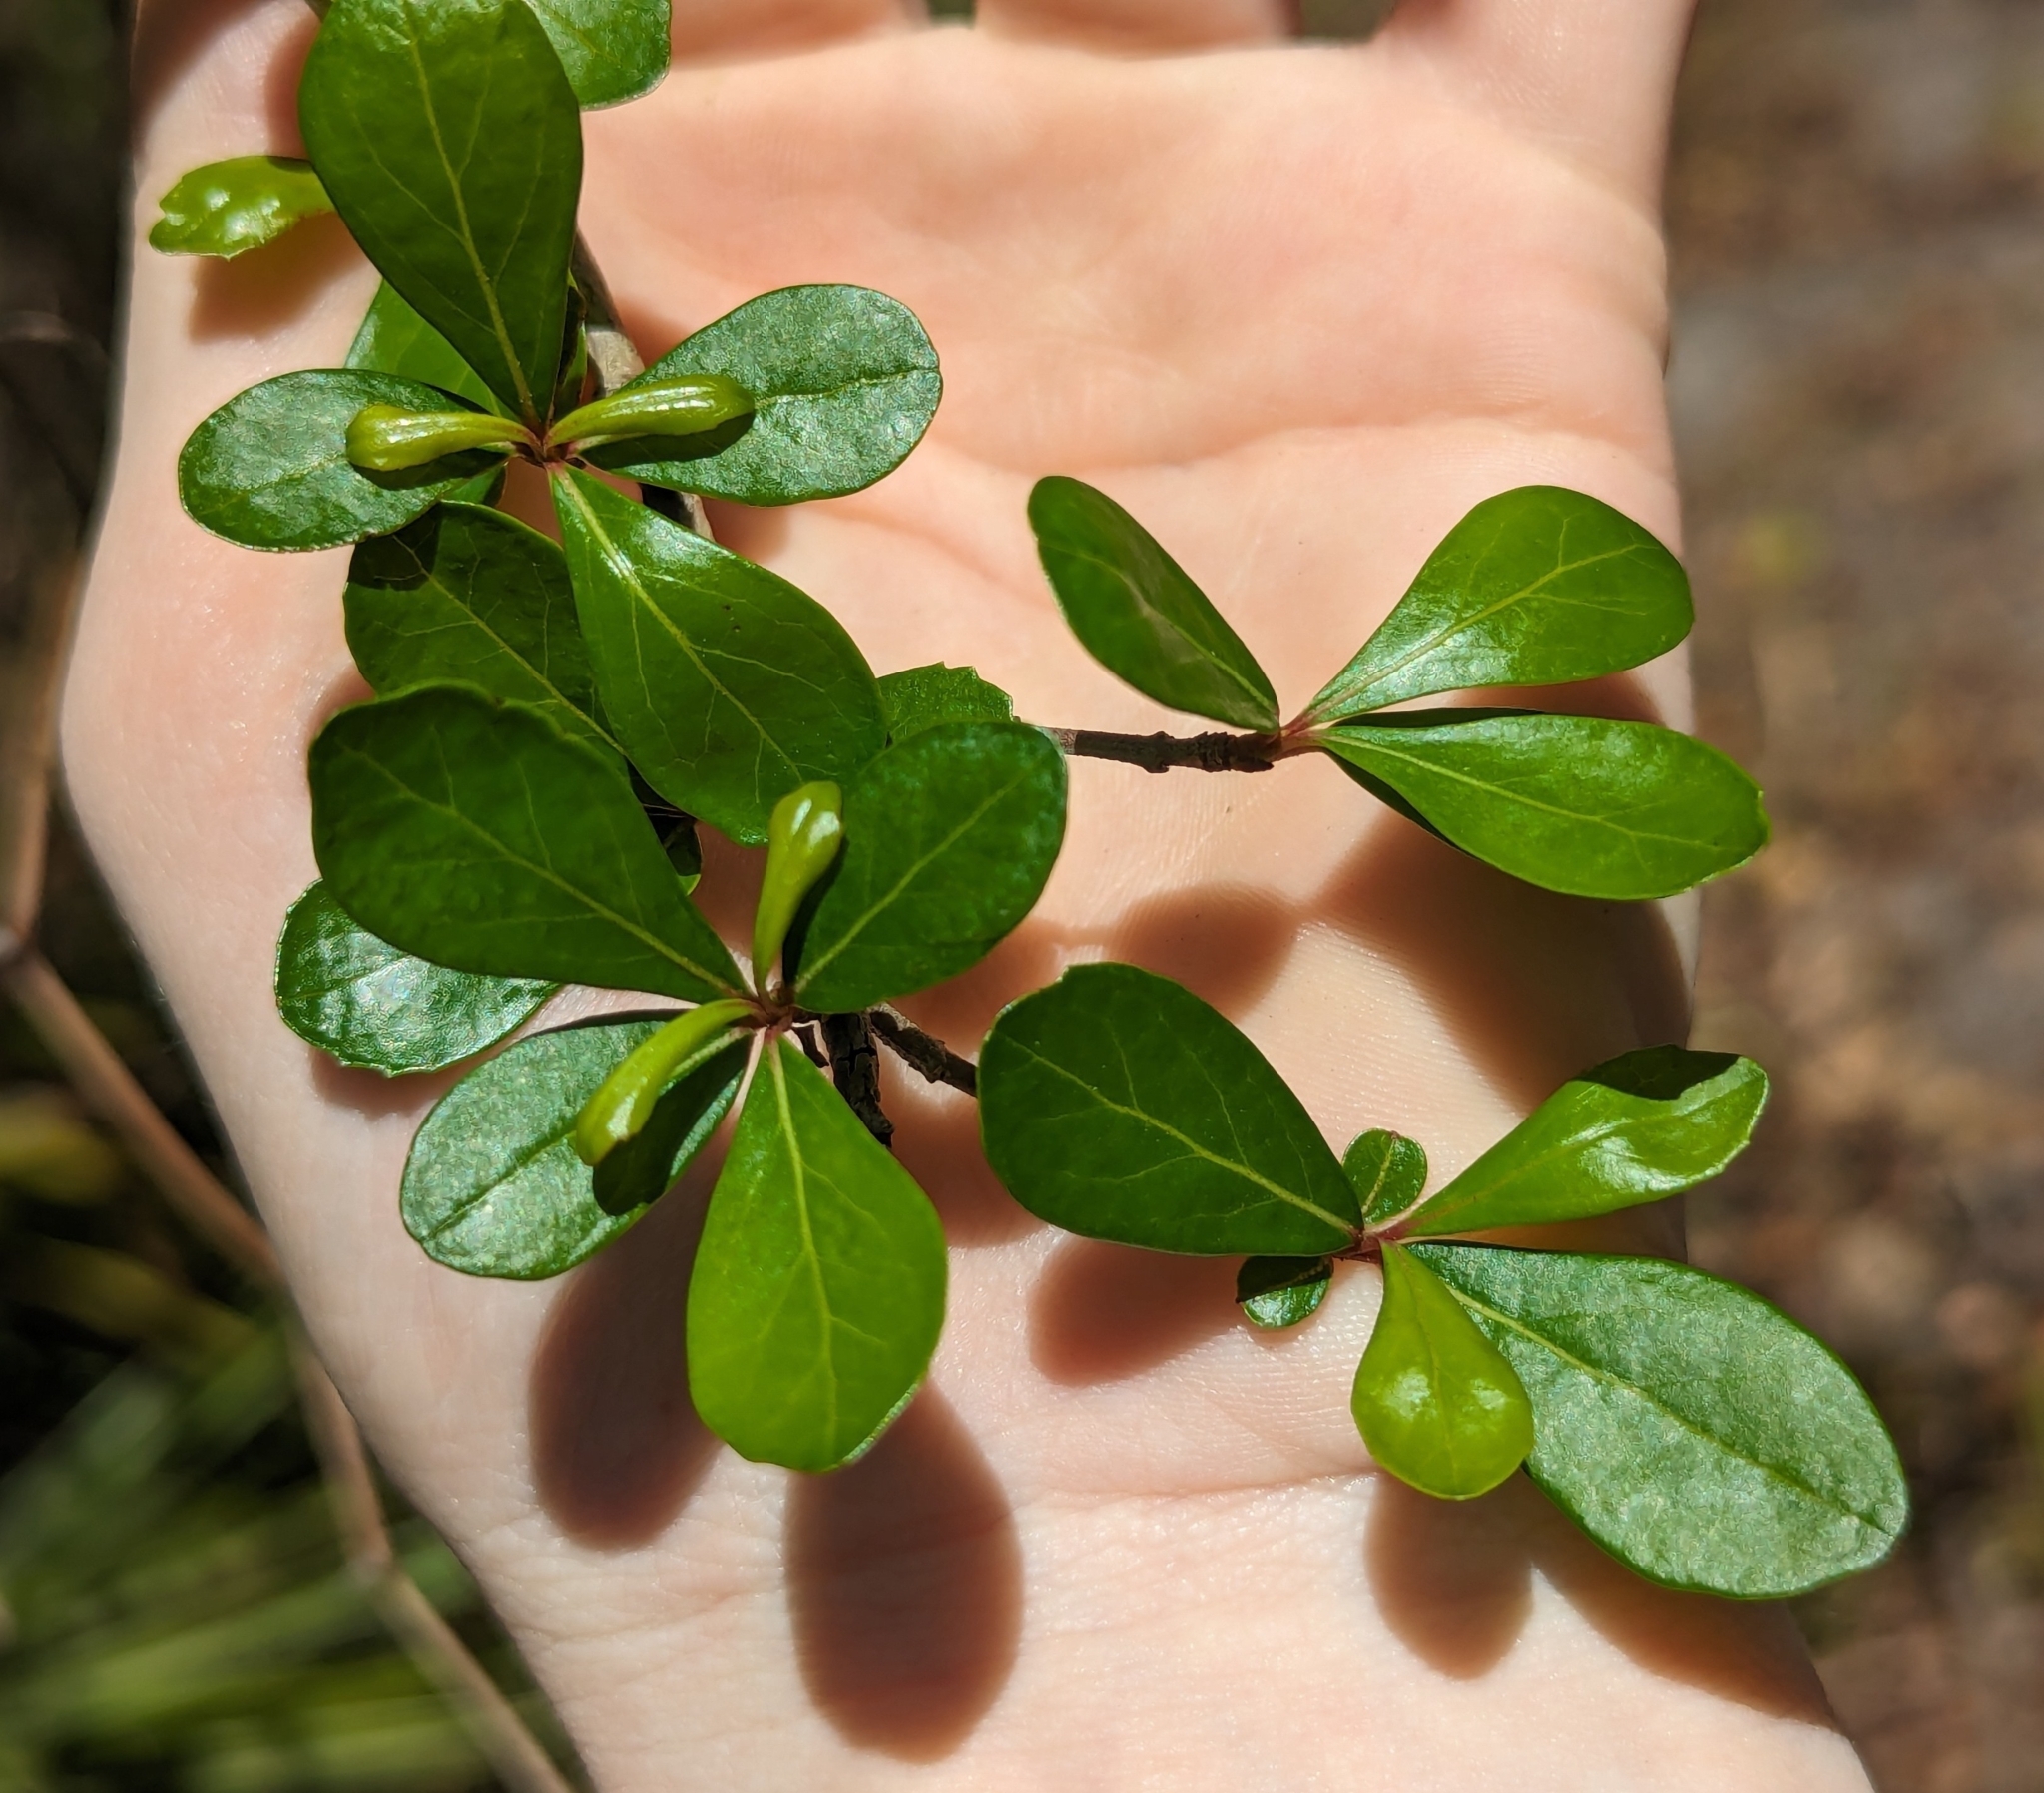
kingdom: Plantae
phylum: Tracheophyta
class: Magnoliopsida
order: Dipsacales
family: Viburnaceae
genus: Viburnum
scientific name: Viburnum obovatum
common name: Walter's viburnum
